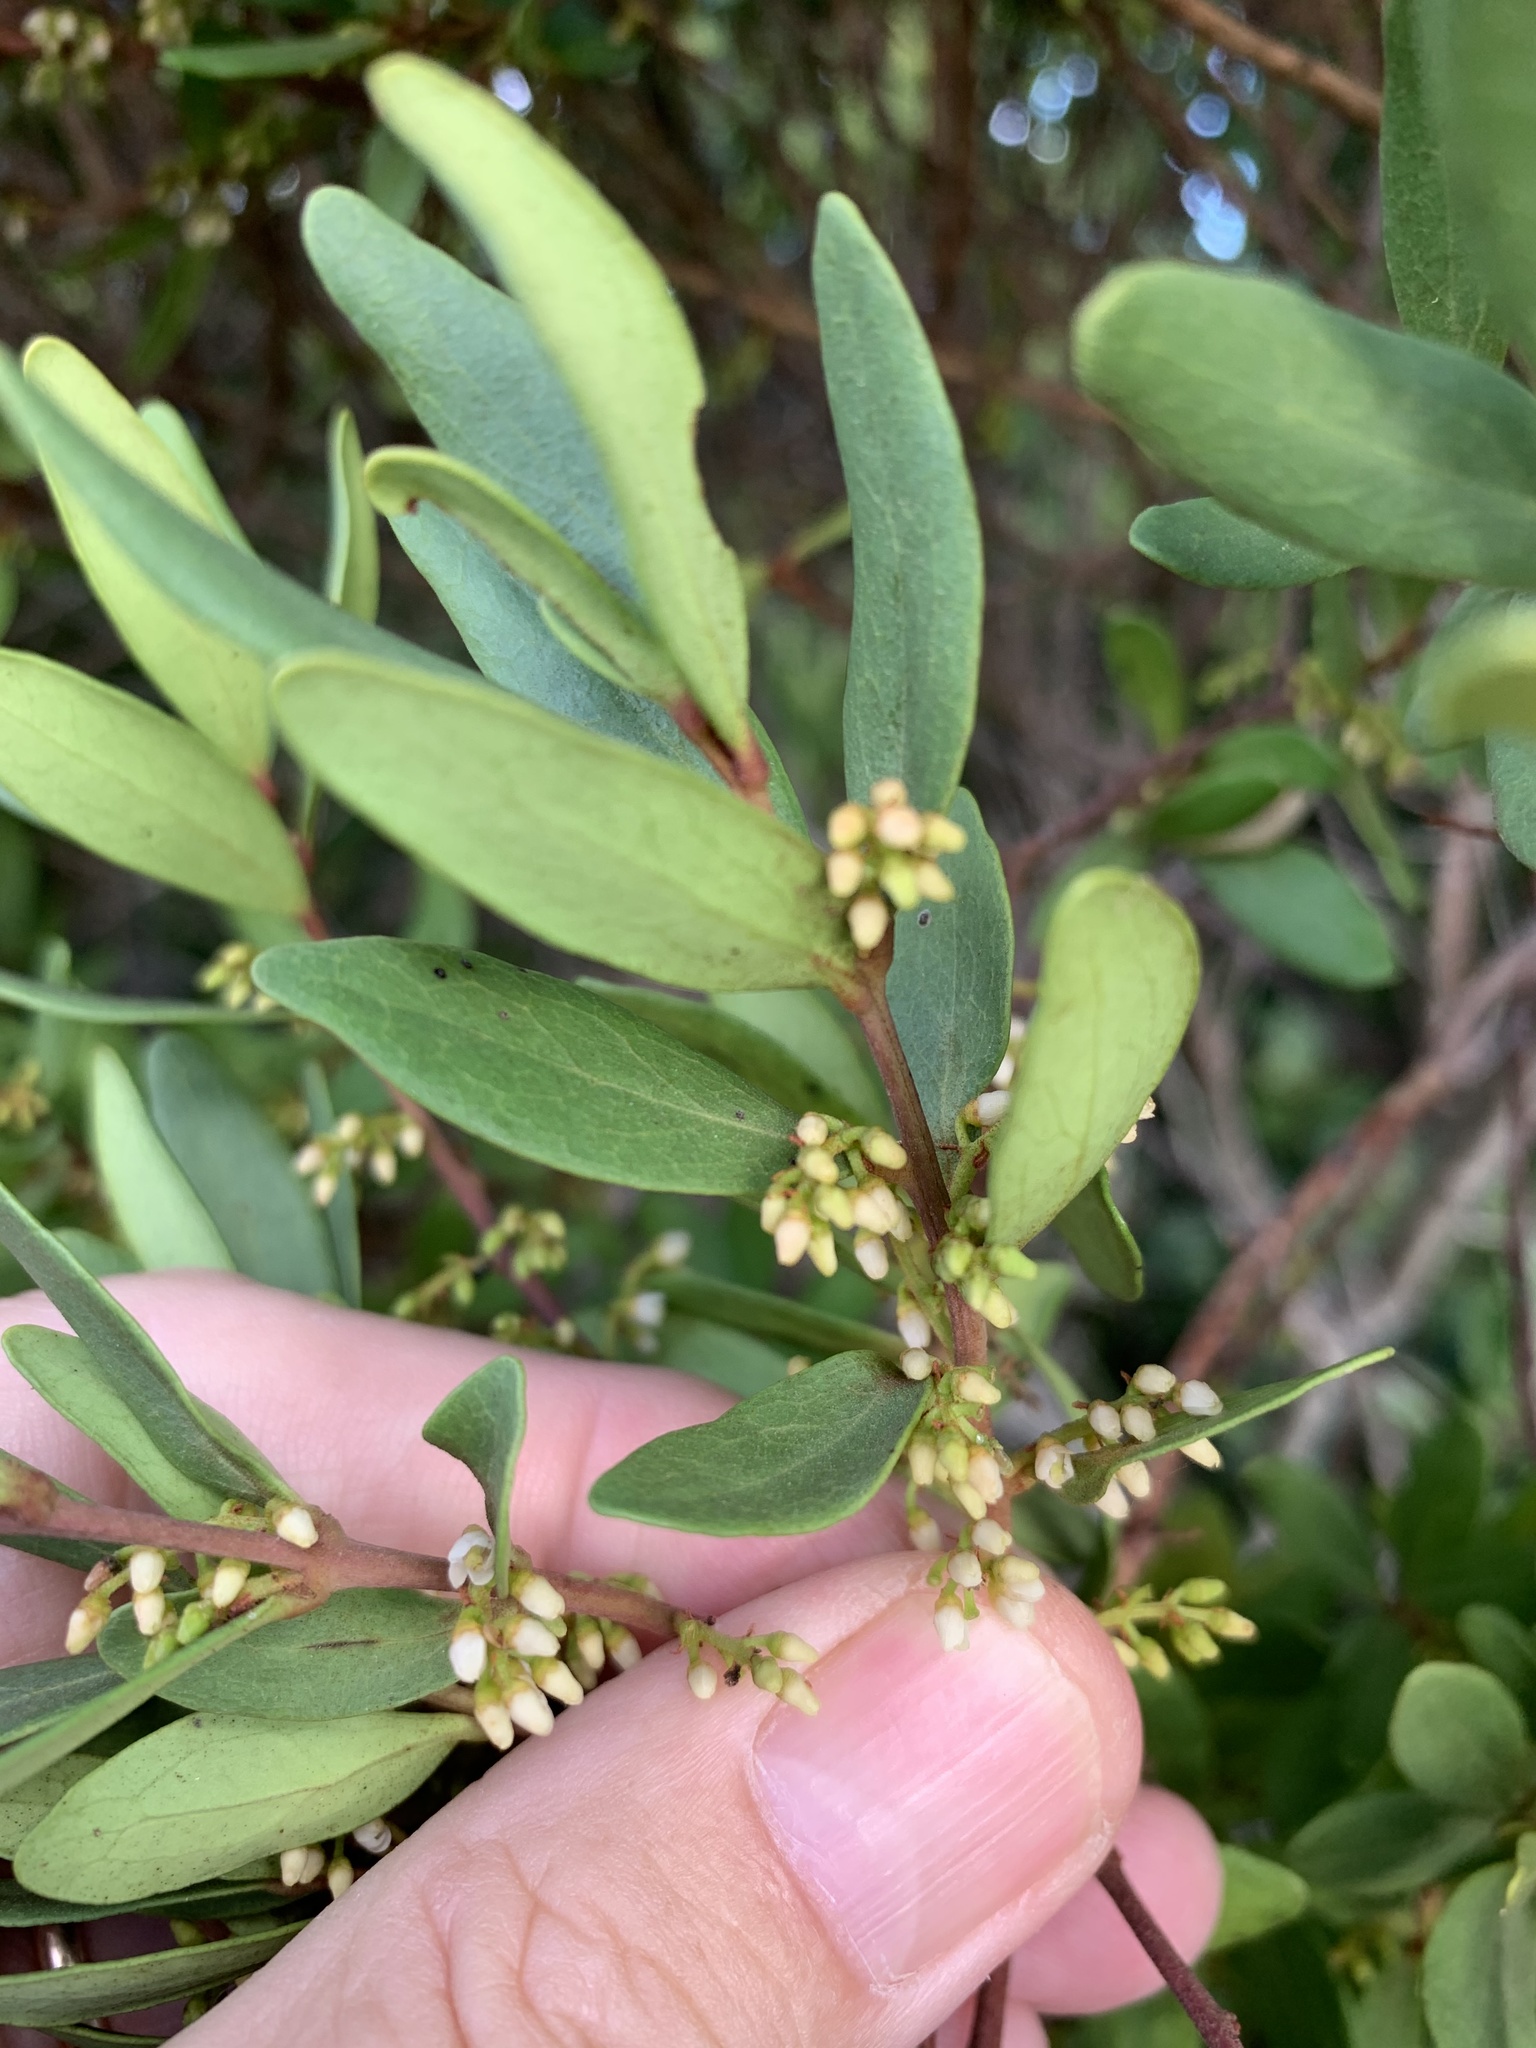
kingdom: Plantae
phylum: Tracheophyta
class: Magnoliopsida
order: Ericales
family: Ebenaceae
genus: Euclea
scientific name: Euclea racemosa
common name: Dune guarri
